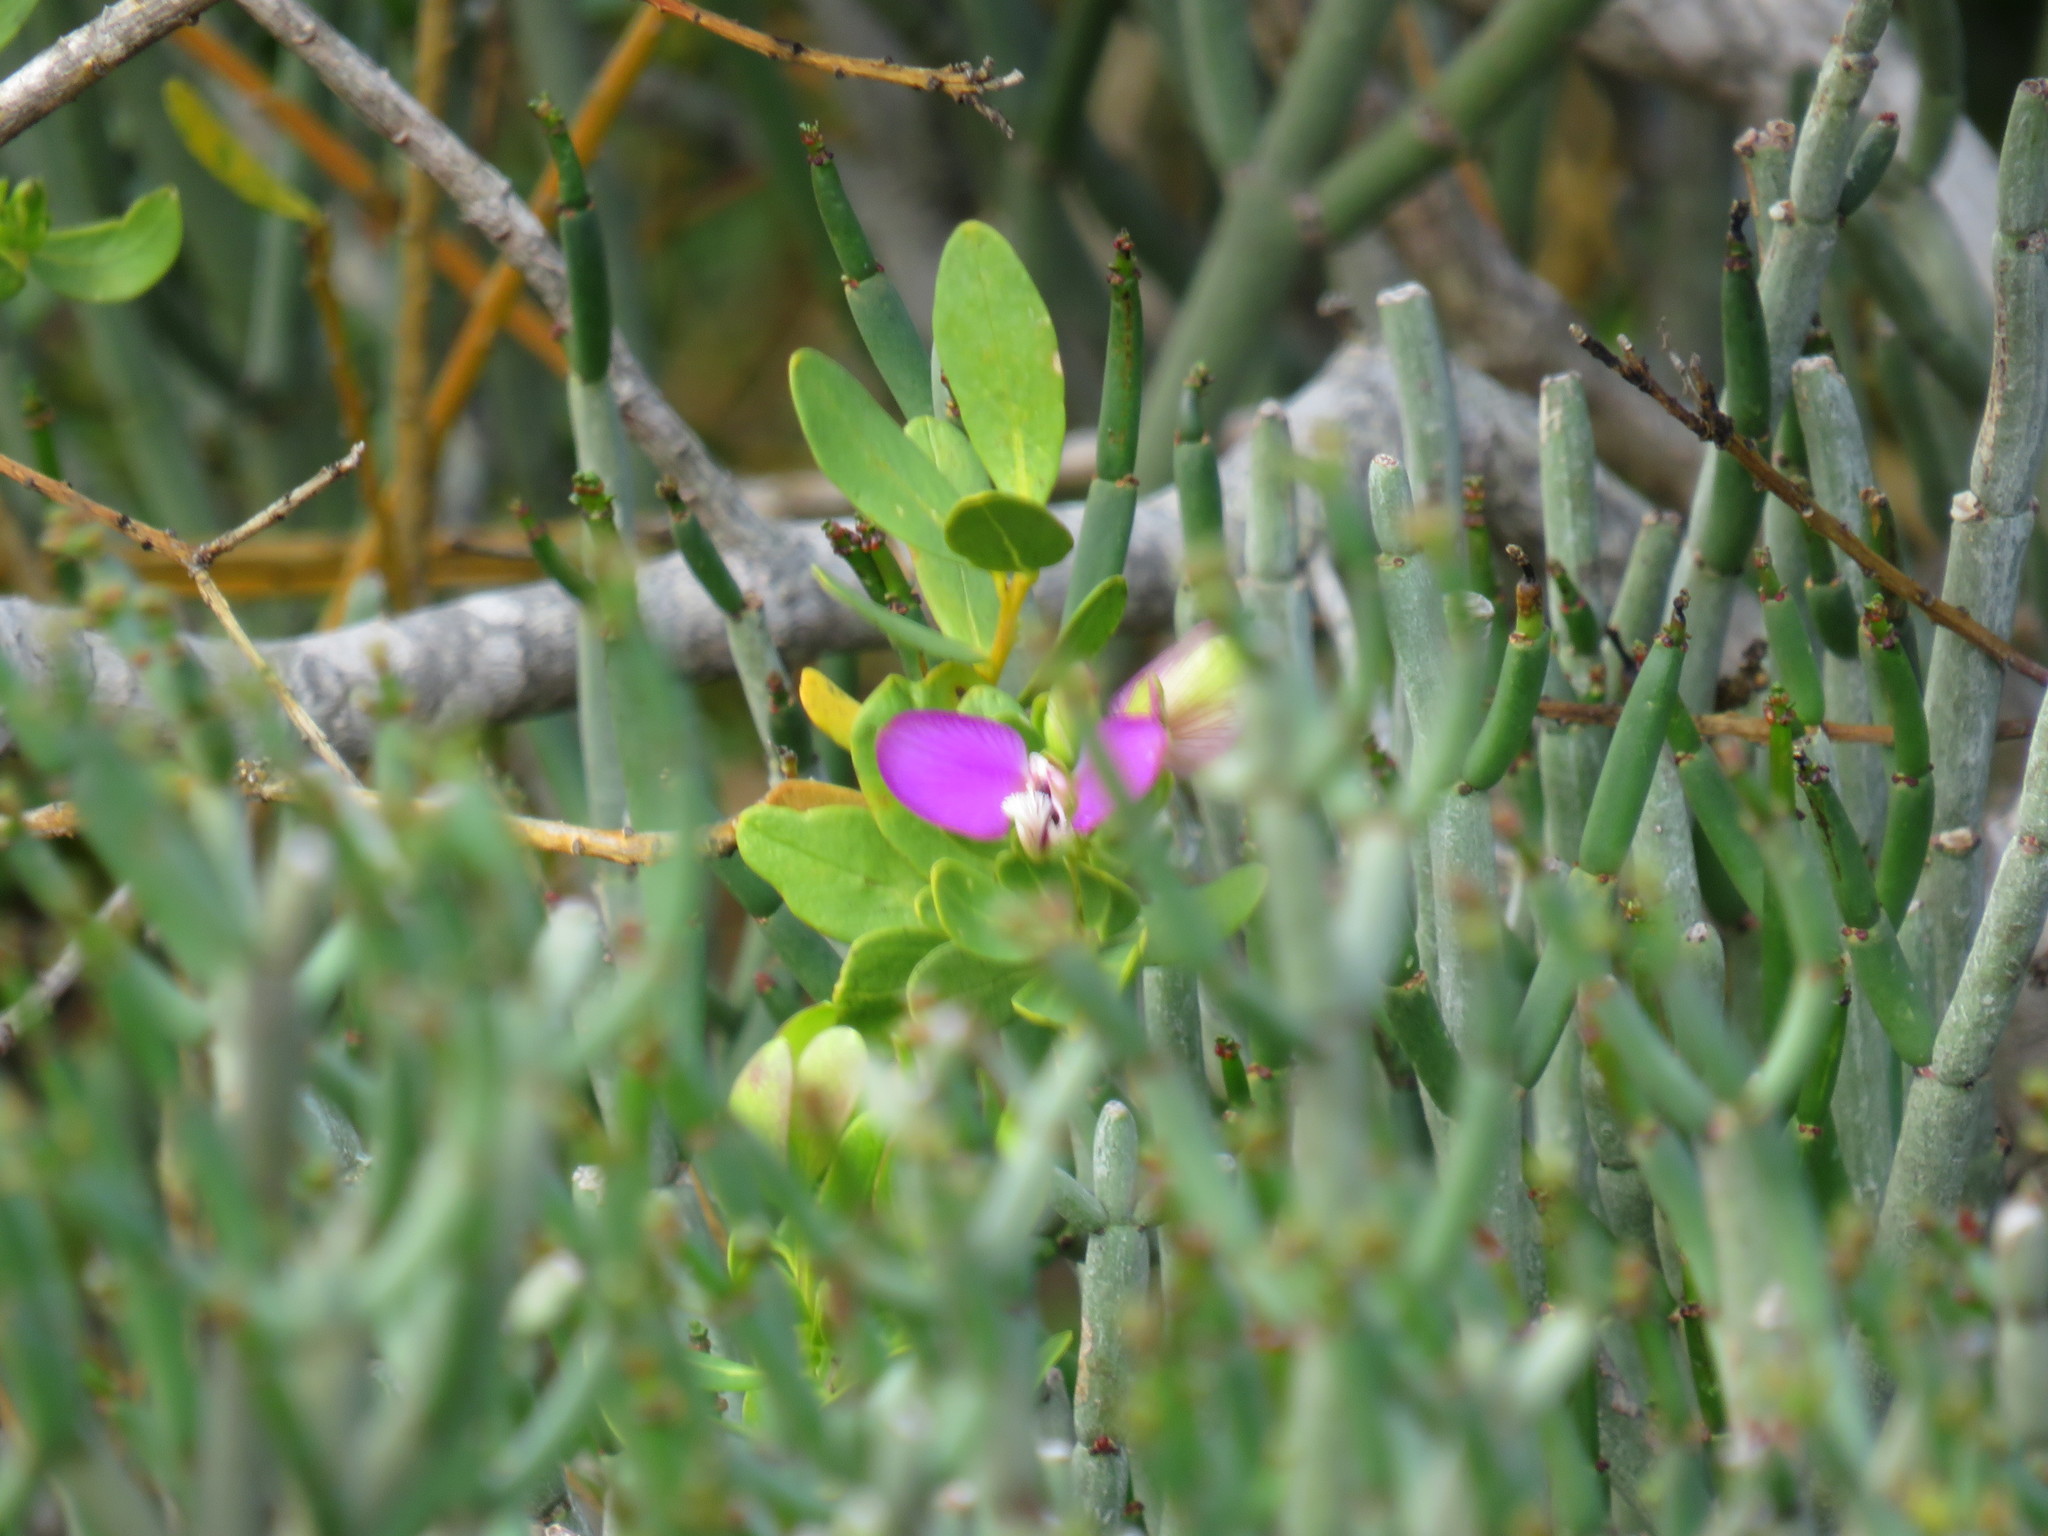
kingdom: Plantae
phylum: Tracheophyta
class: Magnoliopsida
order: Fabales
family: Polygalaceae
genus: Polygala
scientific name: Polygala myrtifolia
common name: Myrtle-leaf milkwort
